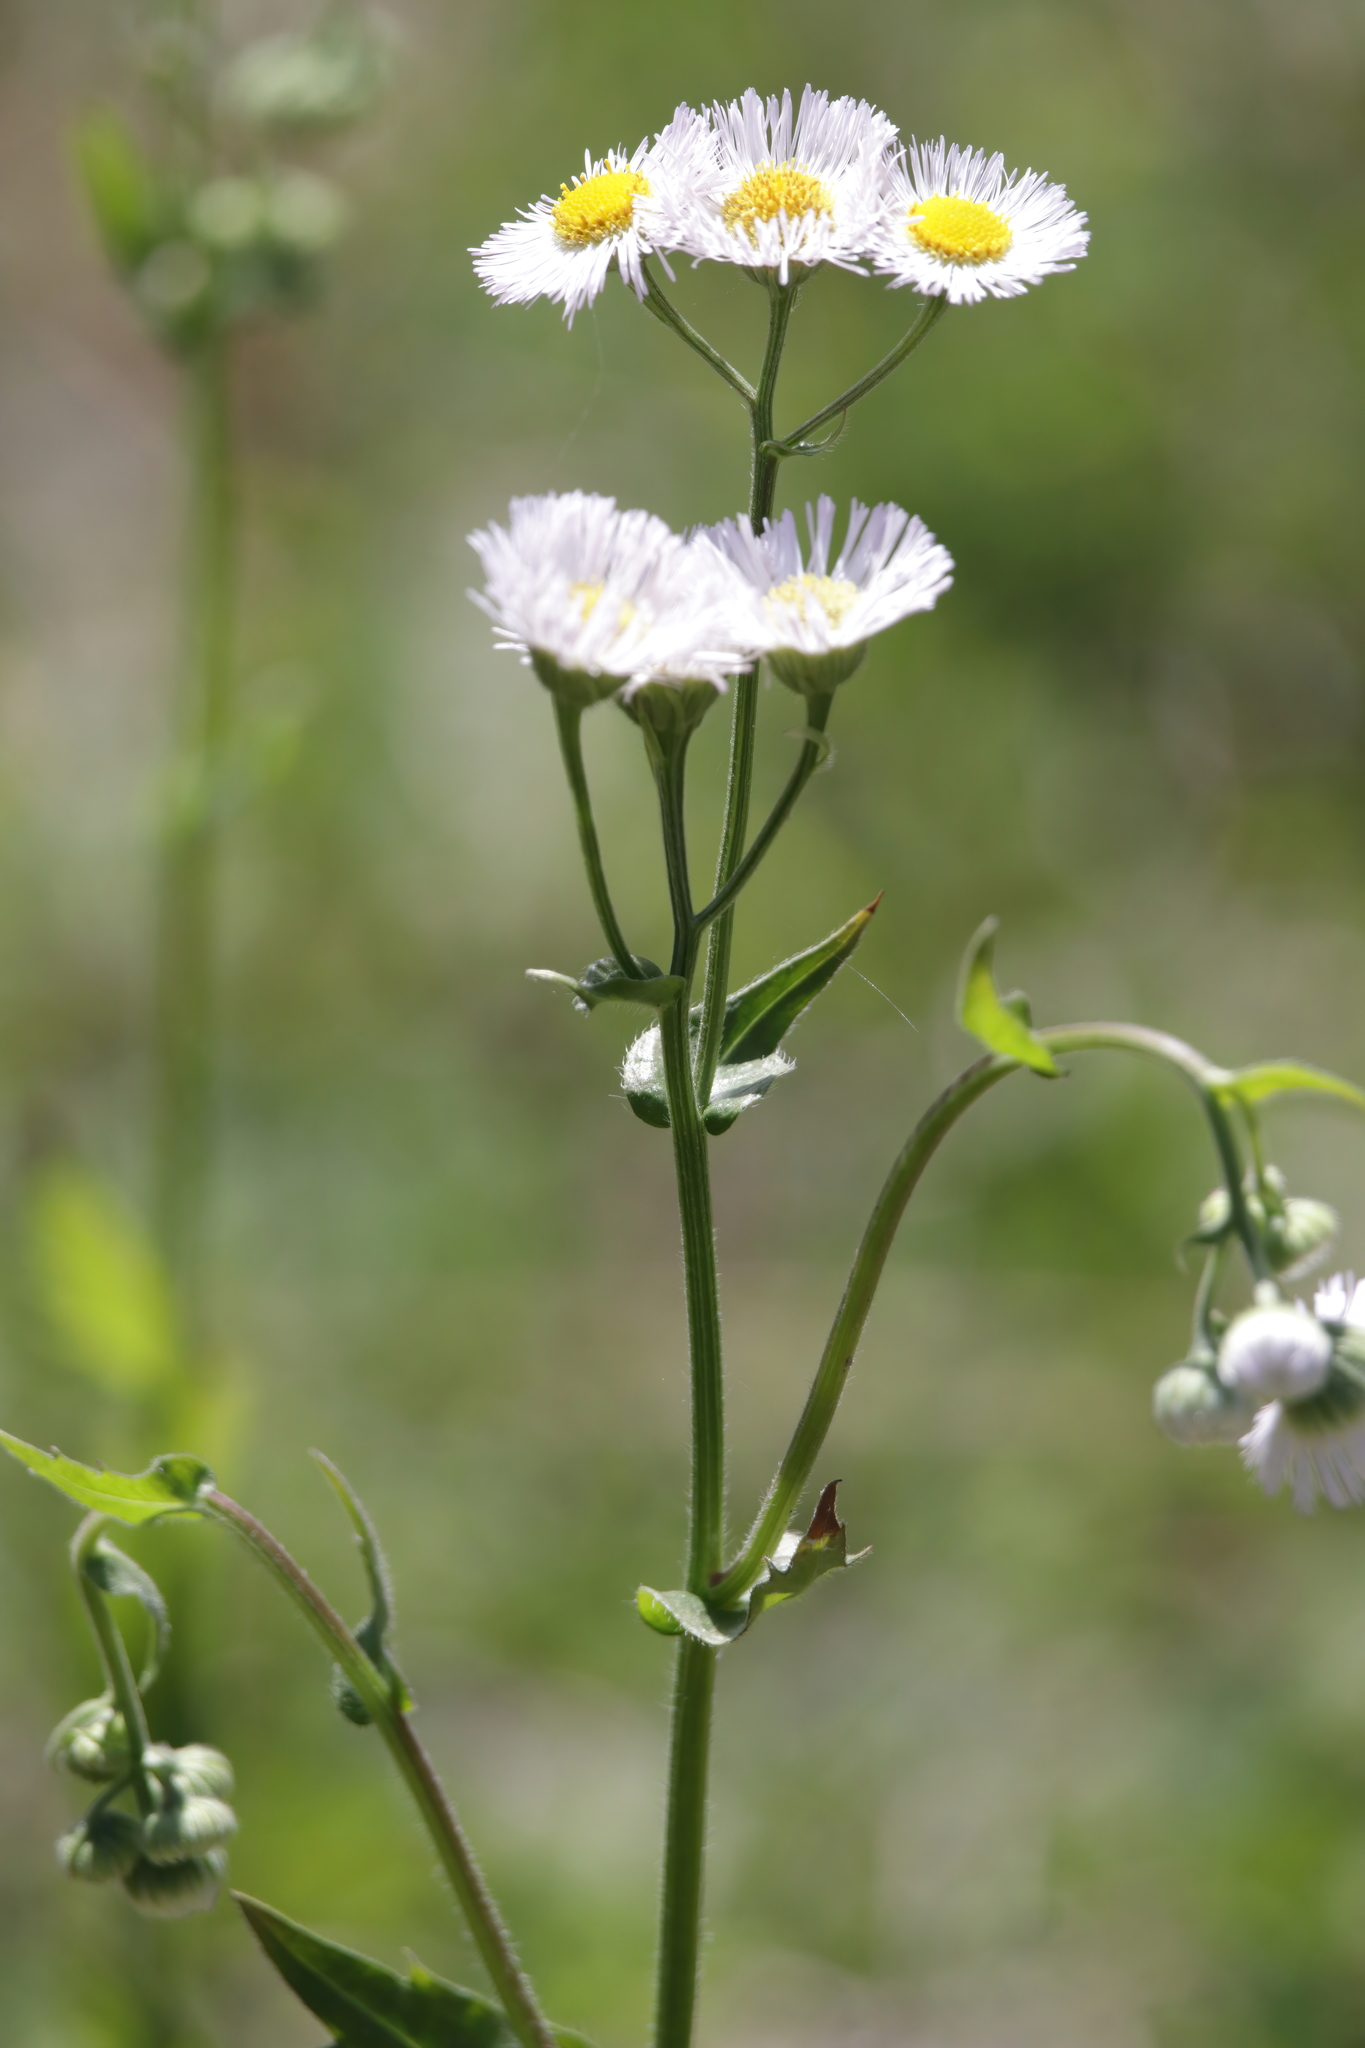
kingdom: Plantae
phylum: Tracheophyta
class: Magnoliopsida
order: Asterales
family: Asteraceae
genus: Erigeron
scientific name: Erigeron philadelphicus
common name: Robin's-plantain
